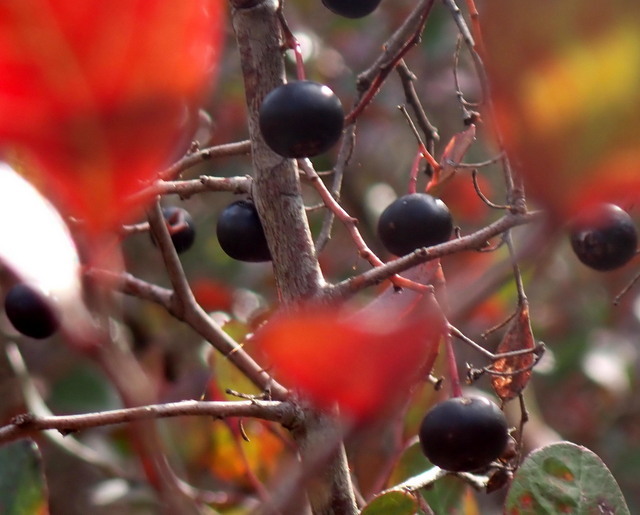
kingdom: Plantae
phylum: Tracheophyta
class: Magnoliopsida
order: Ericales
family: Ericaceae
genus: Vaccinium
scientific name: Vaccinium arboreum
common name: Farkleberry
